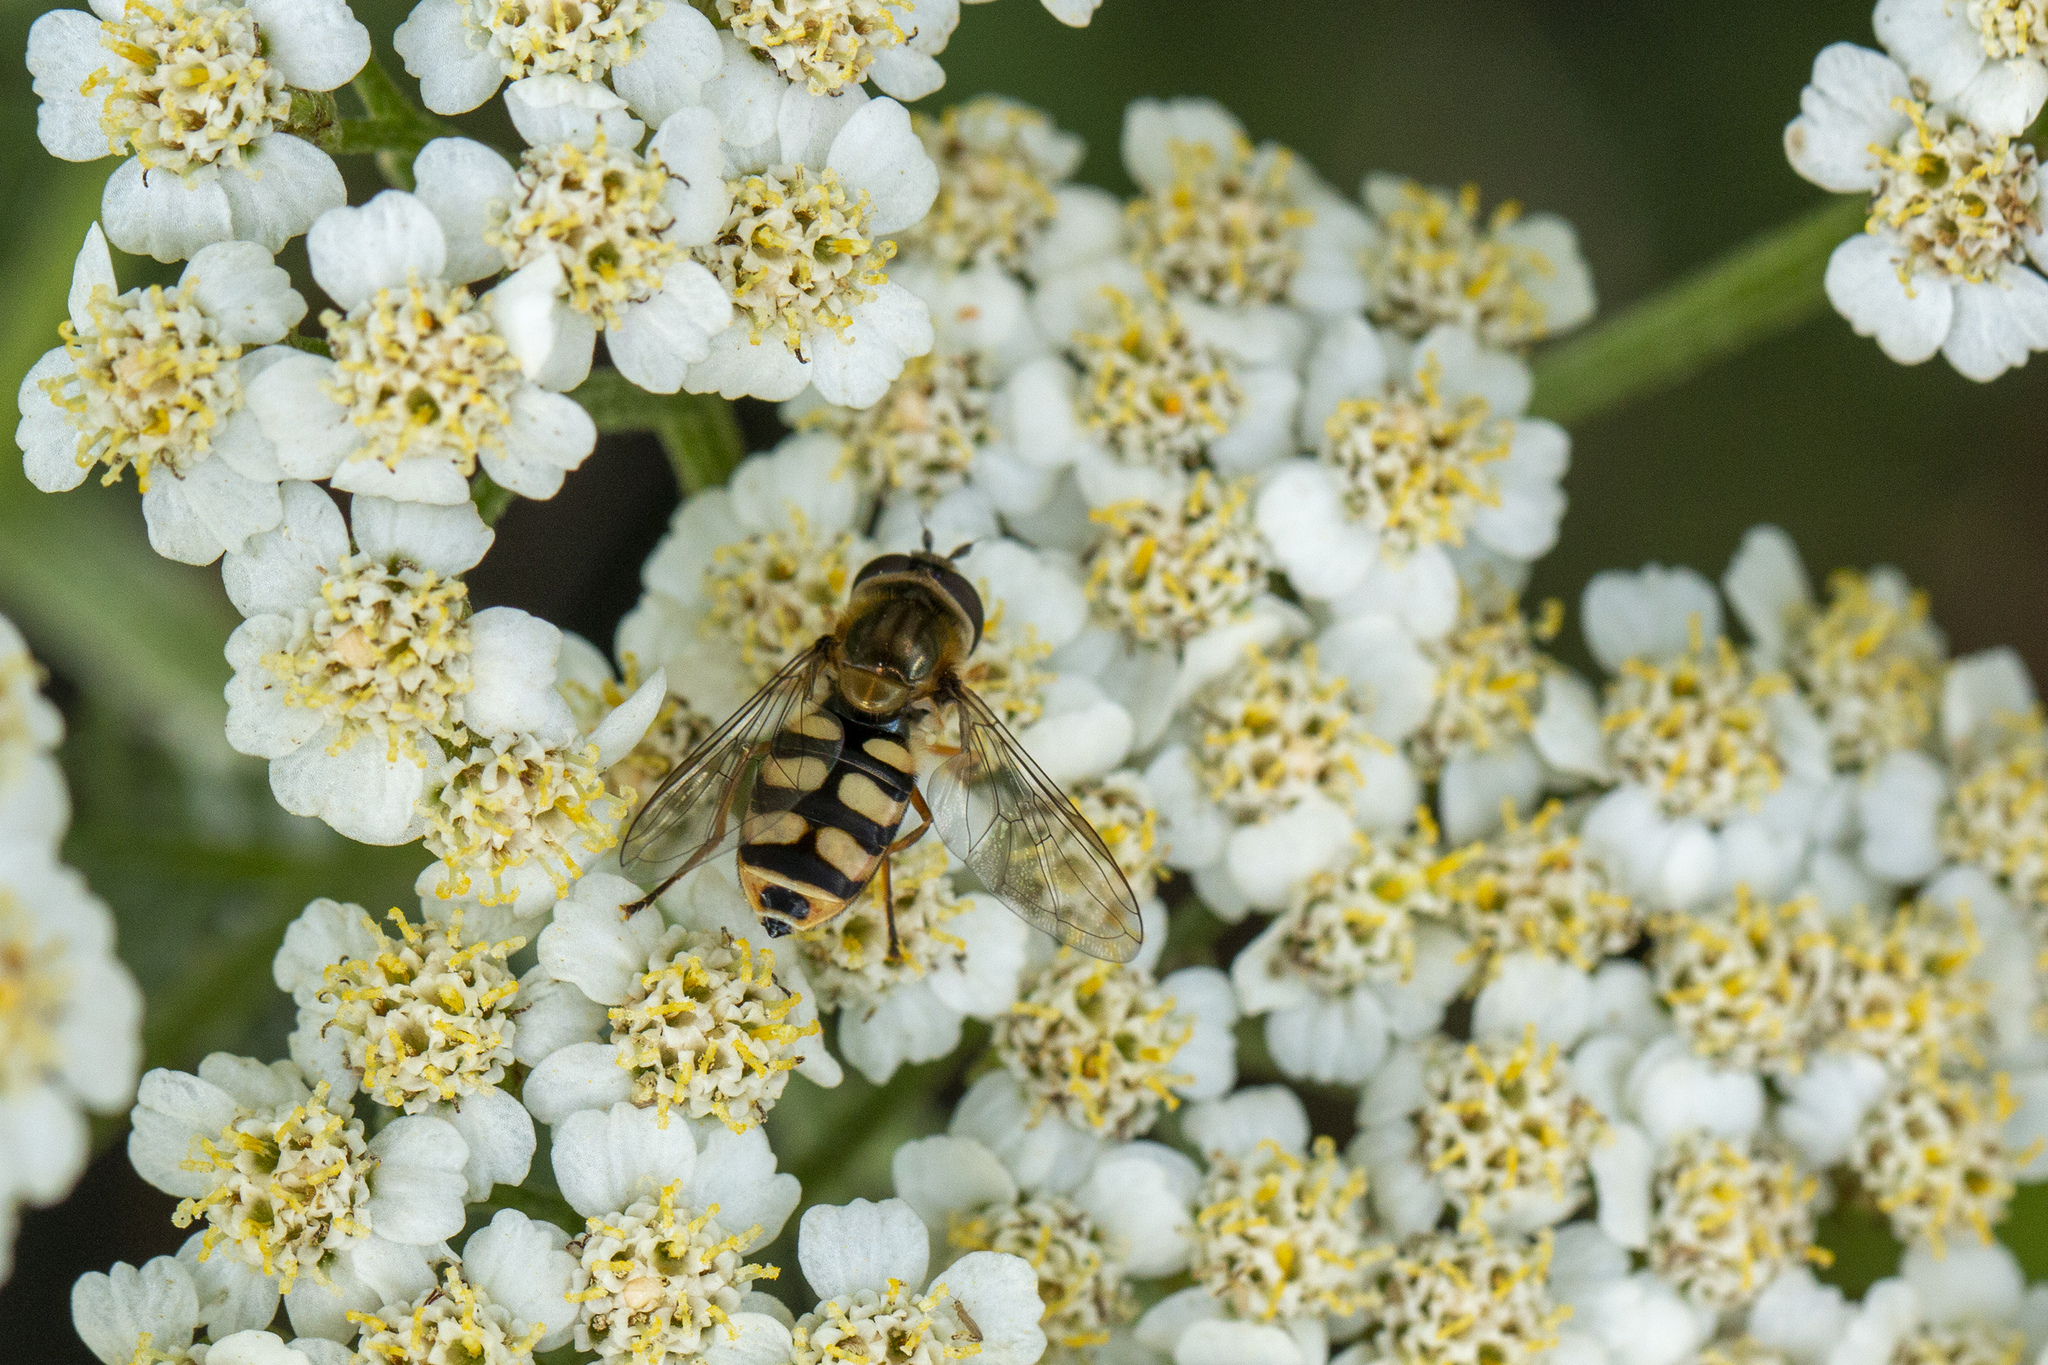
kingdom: Animalia
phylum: Arthropoda
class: Insecta
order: Diptera
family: Syrphidae
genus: Eupeodes
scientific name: Eupeodes corollae
